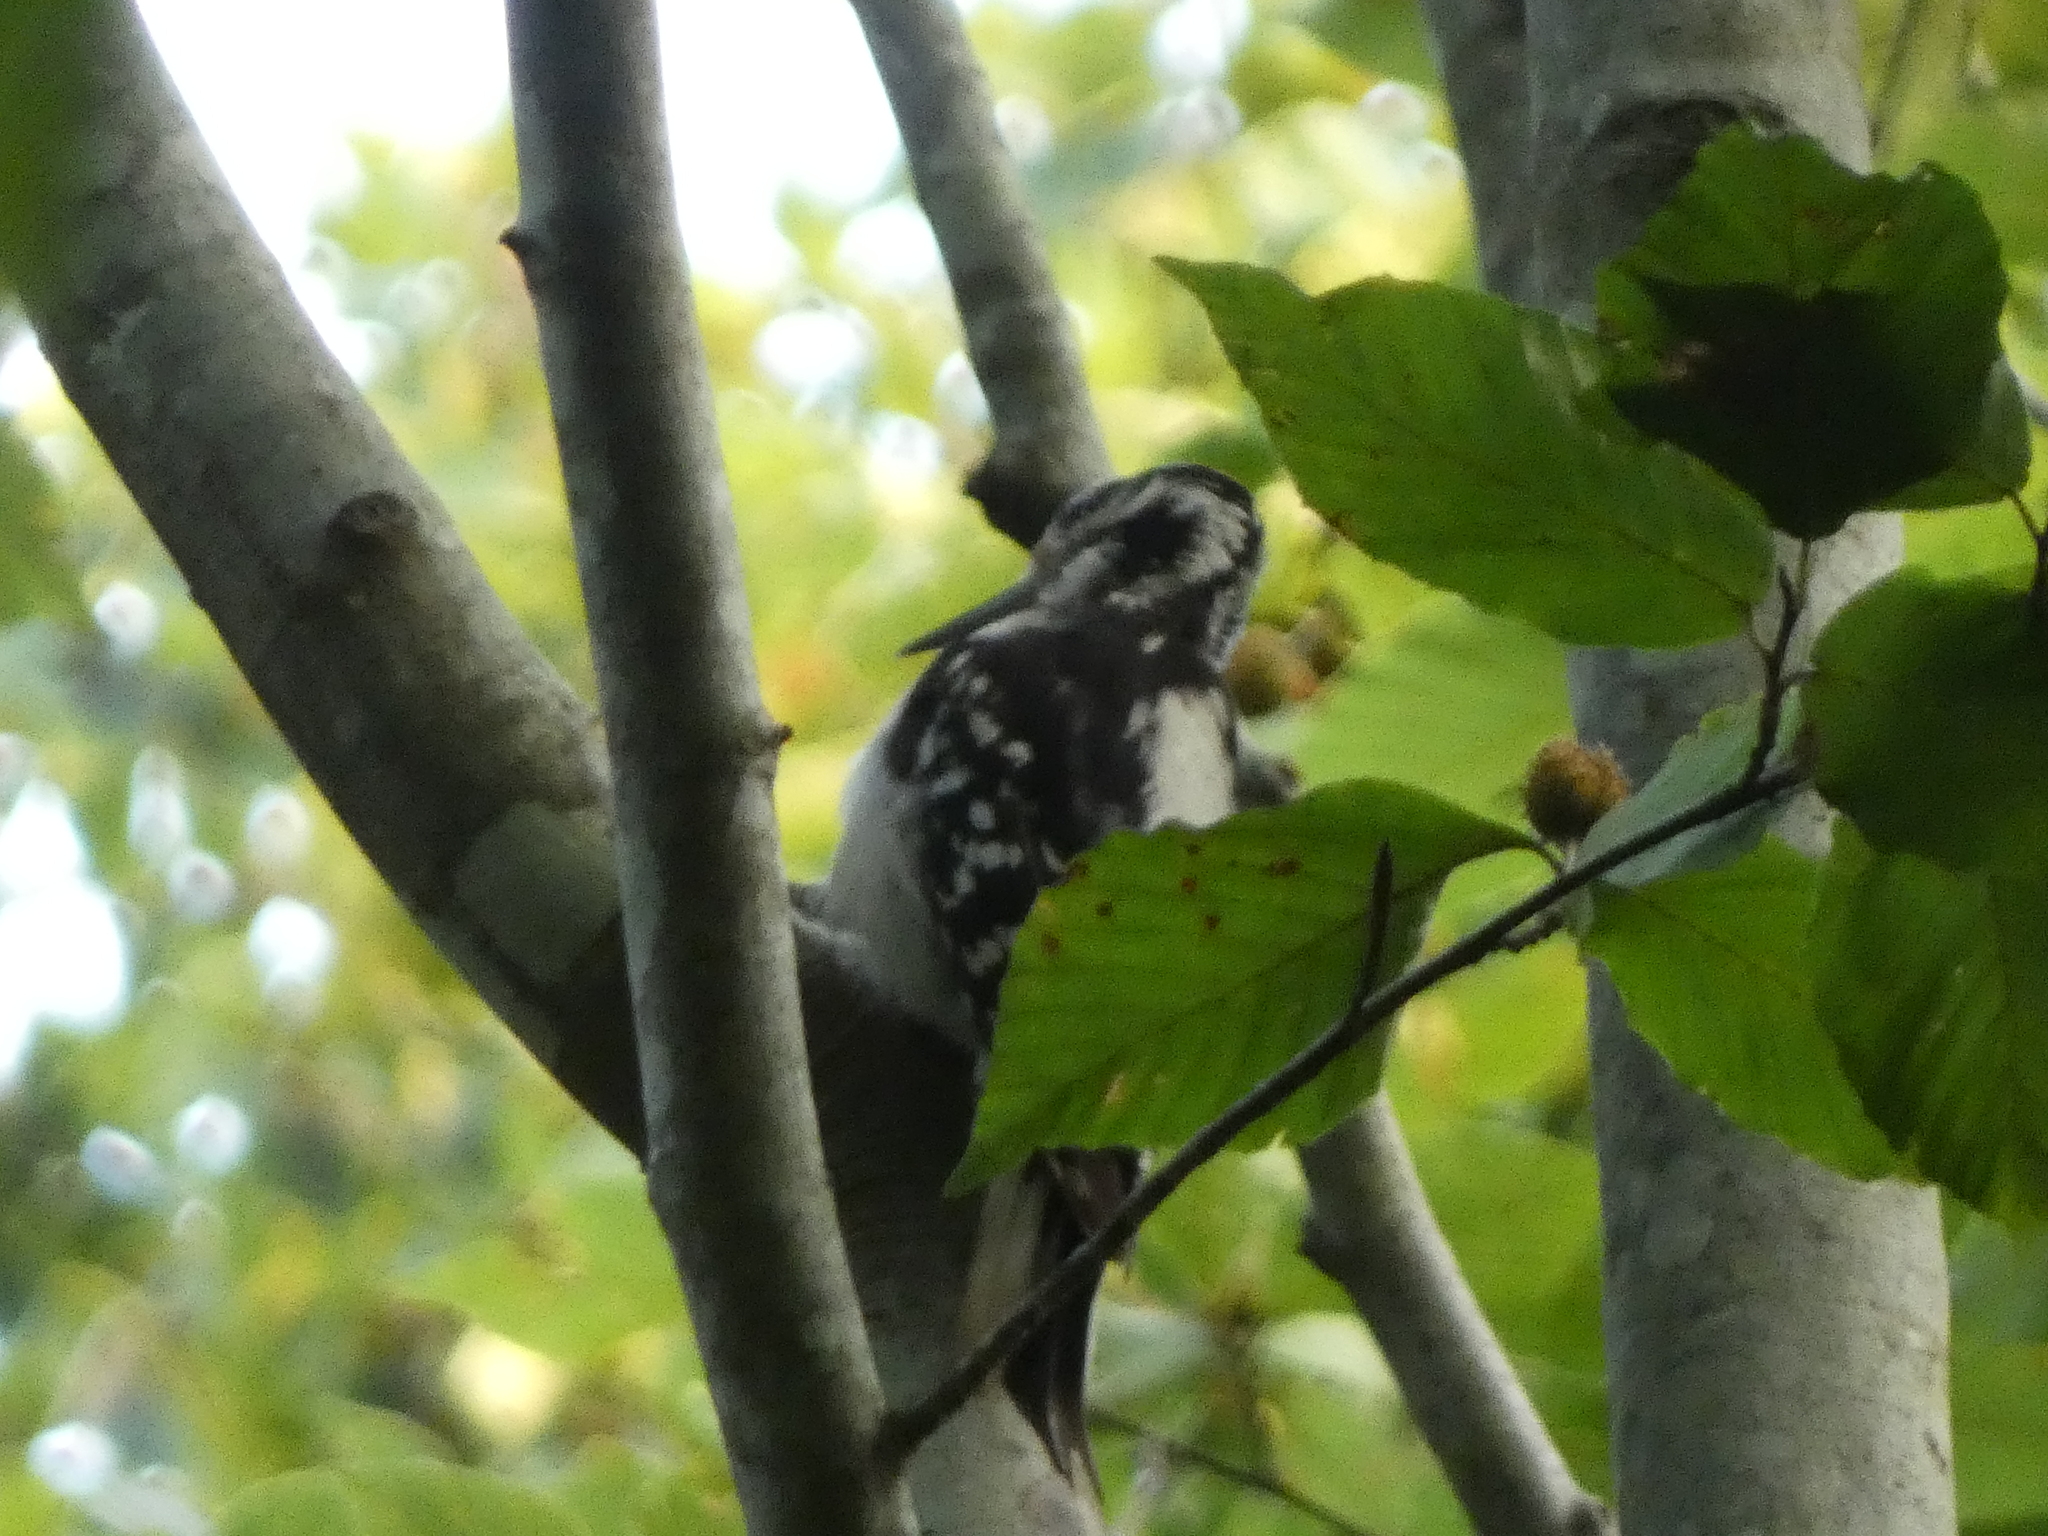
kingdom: Animalia
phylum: Chordata
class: Aves
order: Piciformes
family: Picidae
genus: Leuconotopicus
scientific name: Leuconotopicus villosus
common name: Hairy woodpecker
